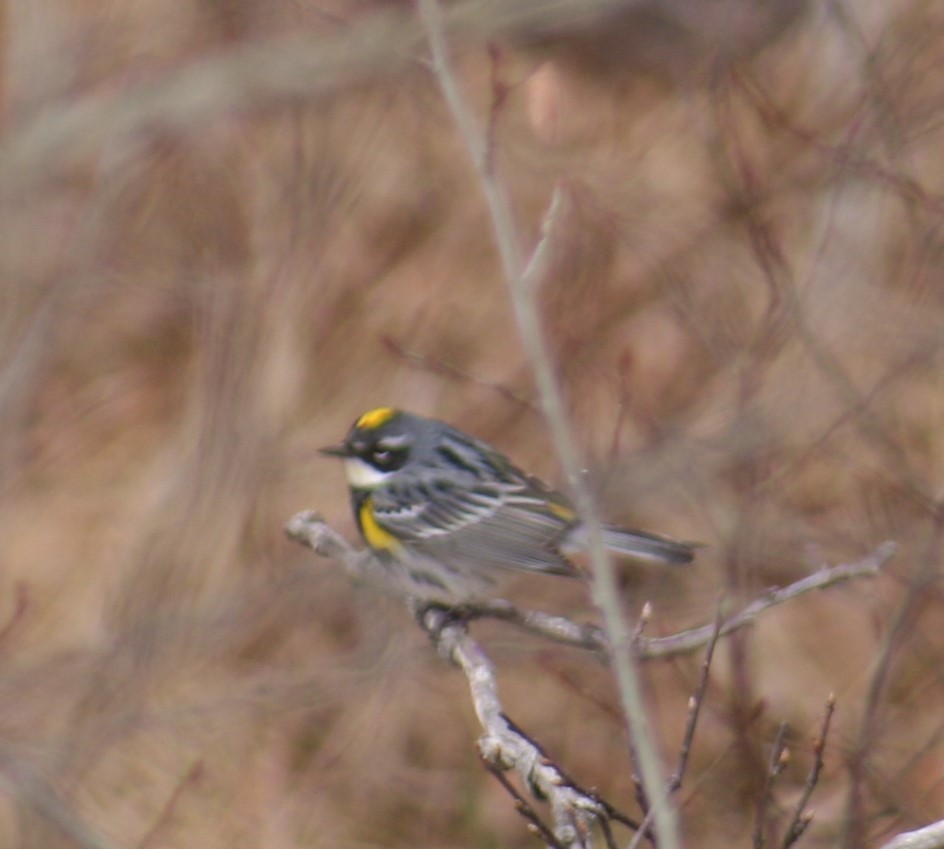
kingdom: Animalia
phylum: Chordata
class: Aves
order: Passeriformes
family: Parulidae
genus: Setophaga
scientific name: Setophaga coronata
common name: Myrtle warbler
